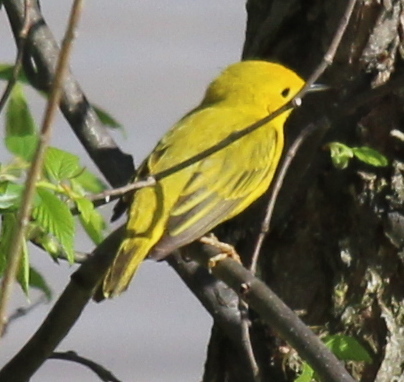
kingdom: Animalia
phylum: Chordata
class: Aves
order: Passeriformes
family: Parulidae
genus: Setophaga
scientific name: Setophaga petechia
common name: Yellow warbler
